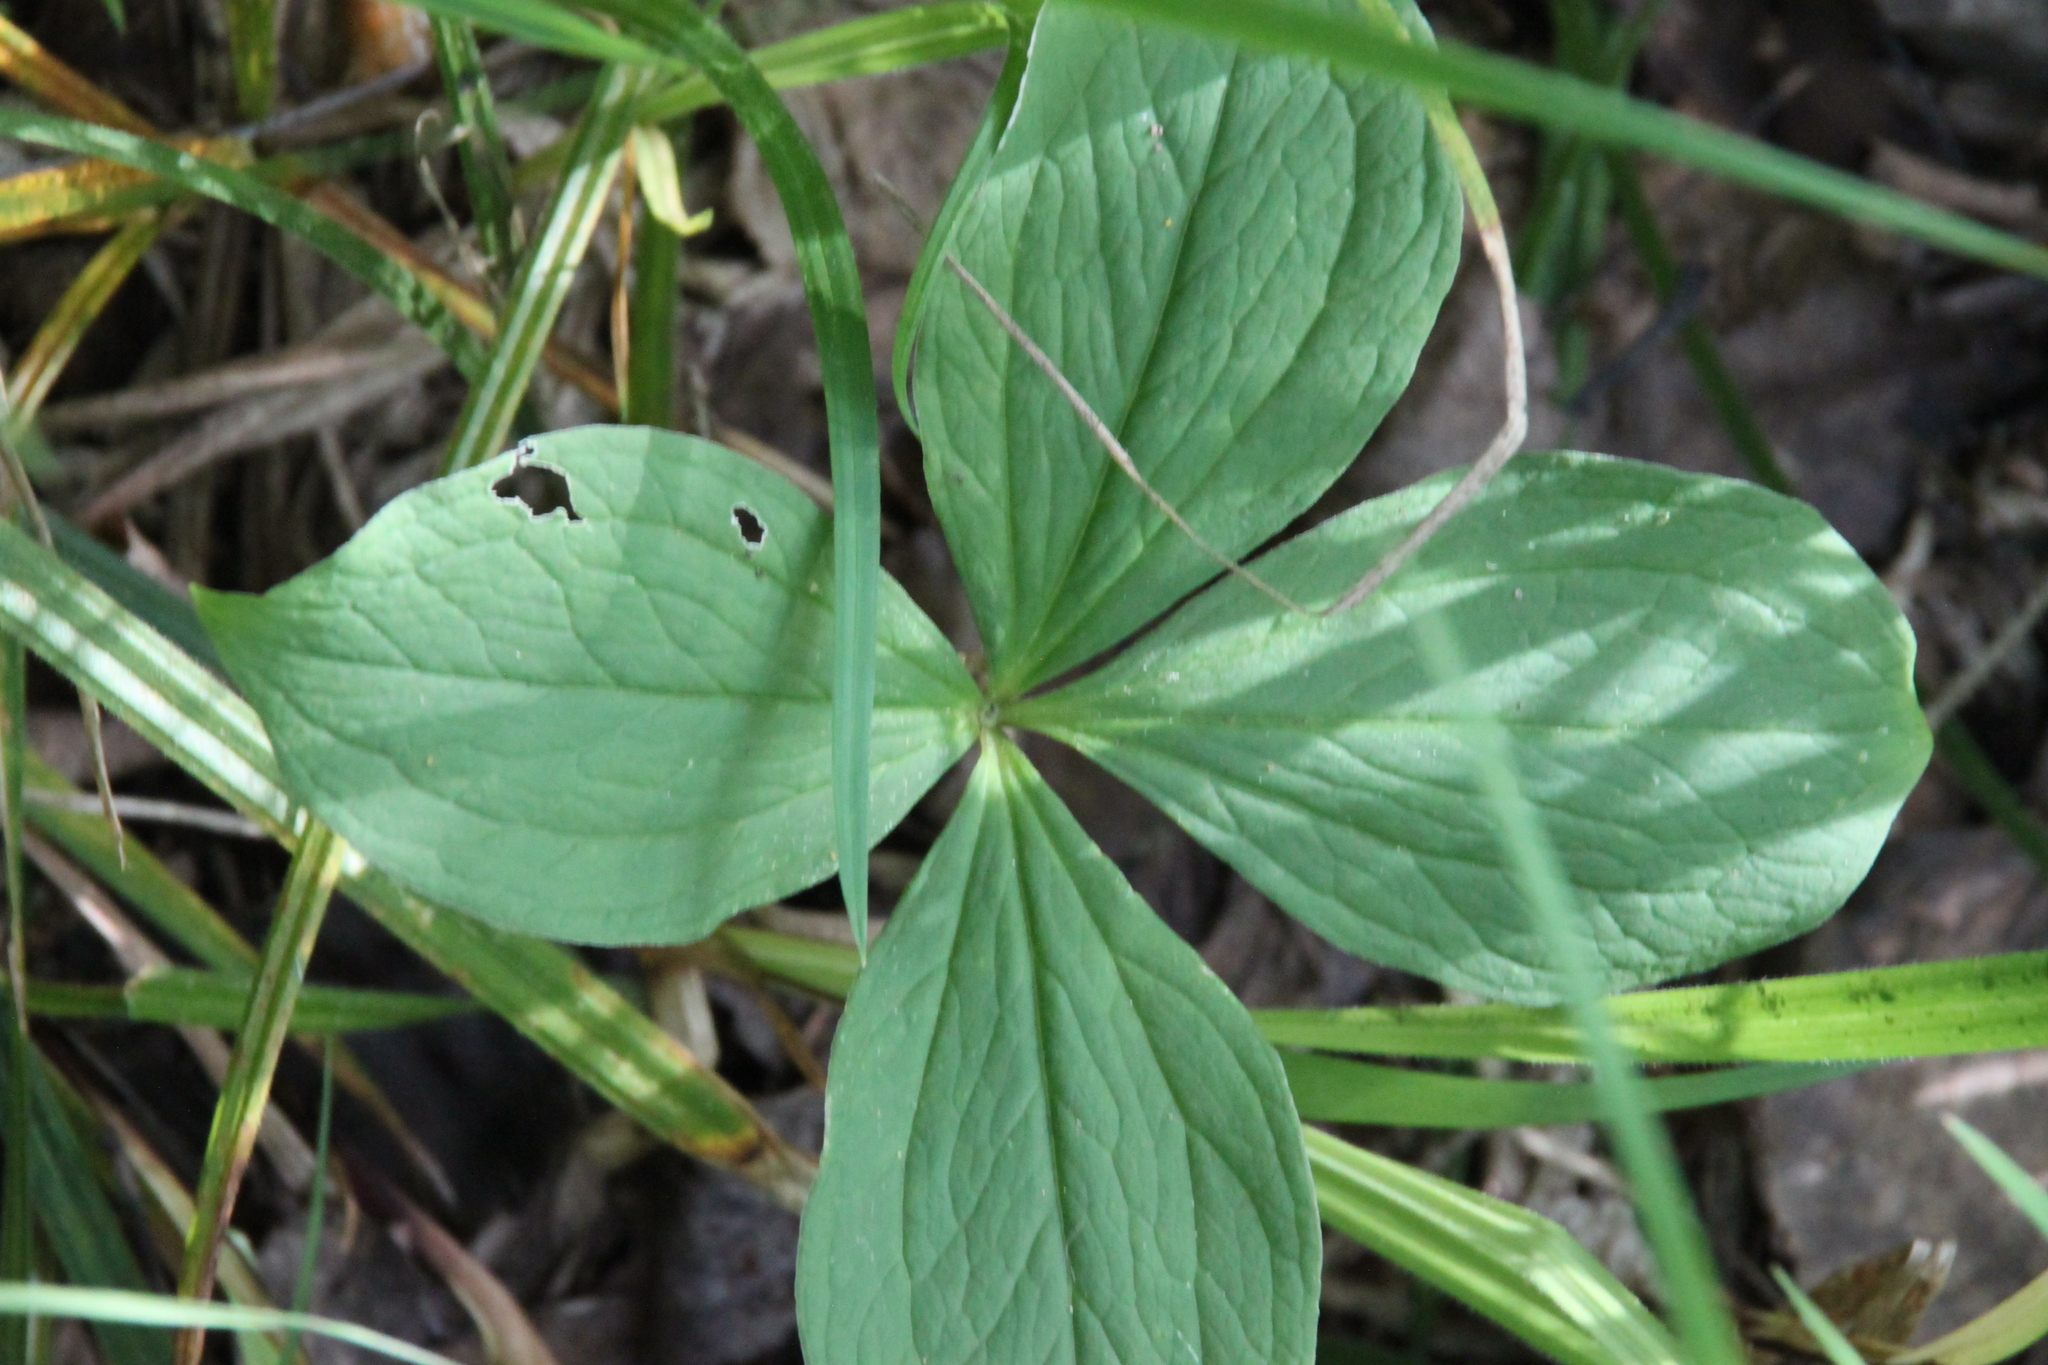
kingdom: Plantae
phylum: Tracheophyta
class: Liliopsida
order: Liliales
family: Melanthiaceae
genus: Paris
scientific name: Paris quadrifolia
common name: Herb-paris
